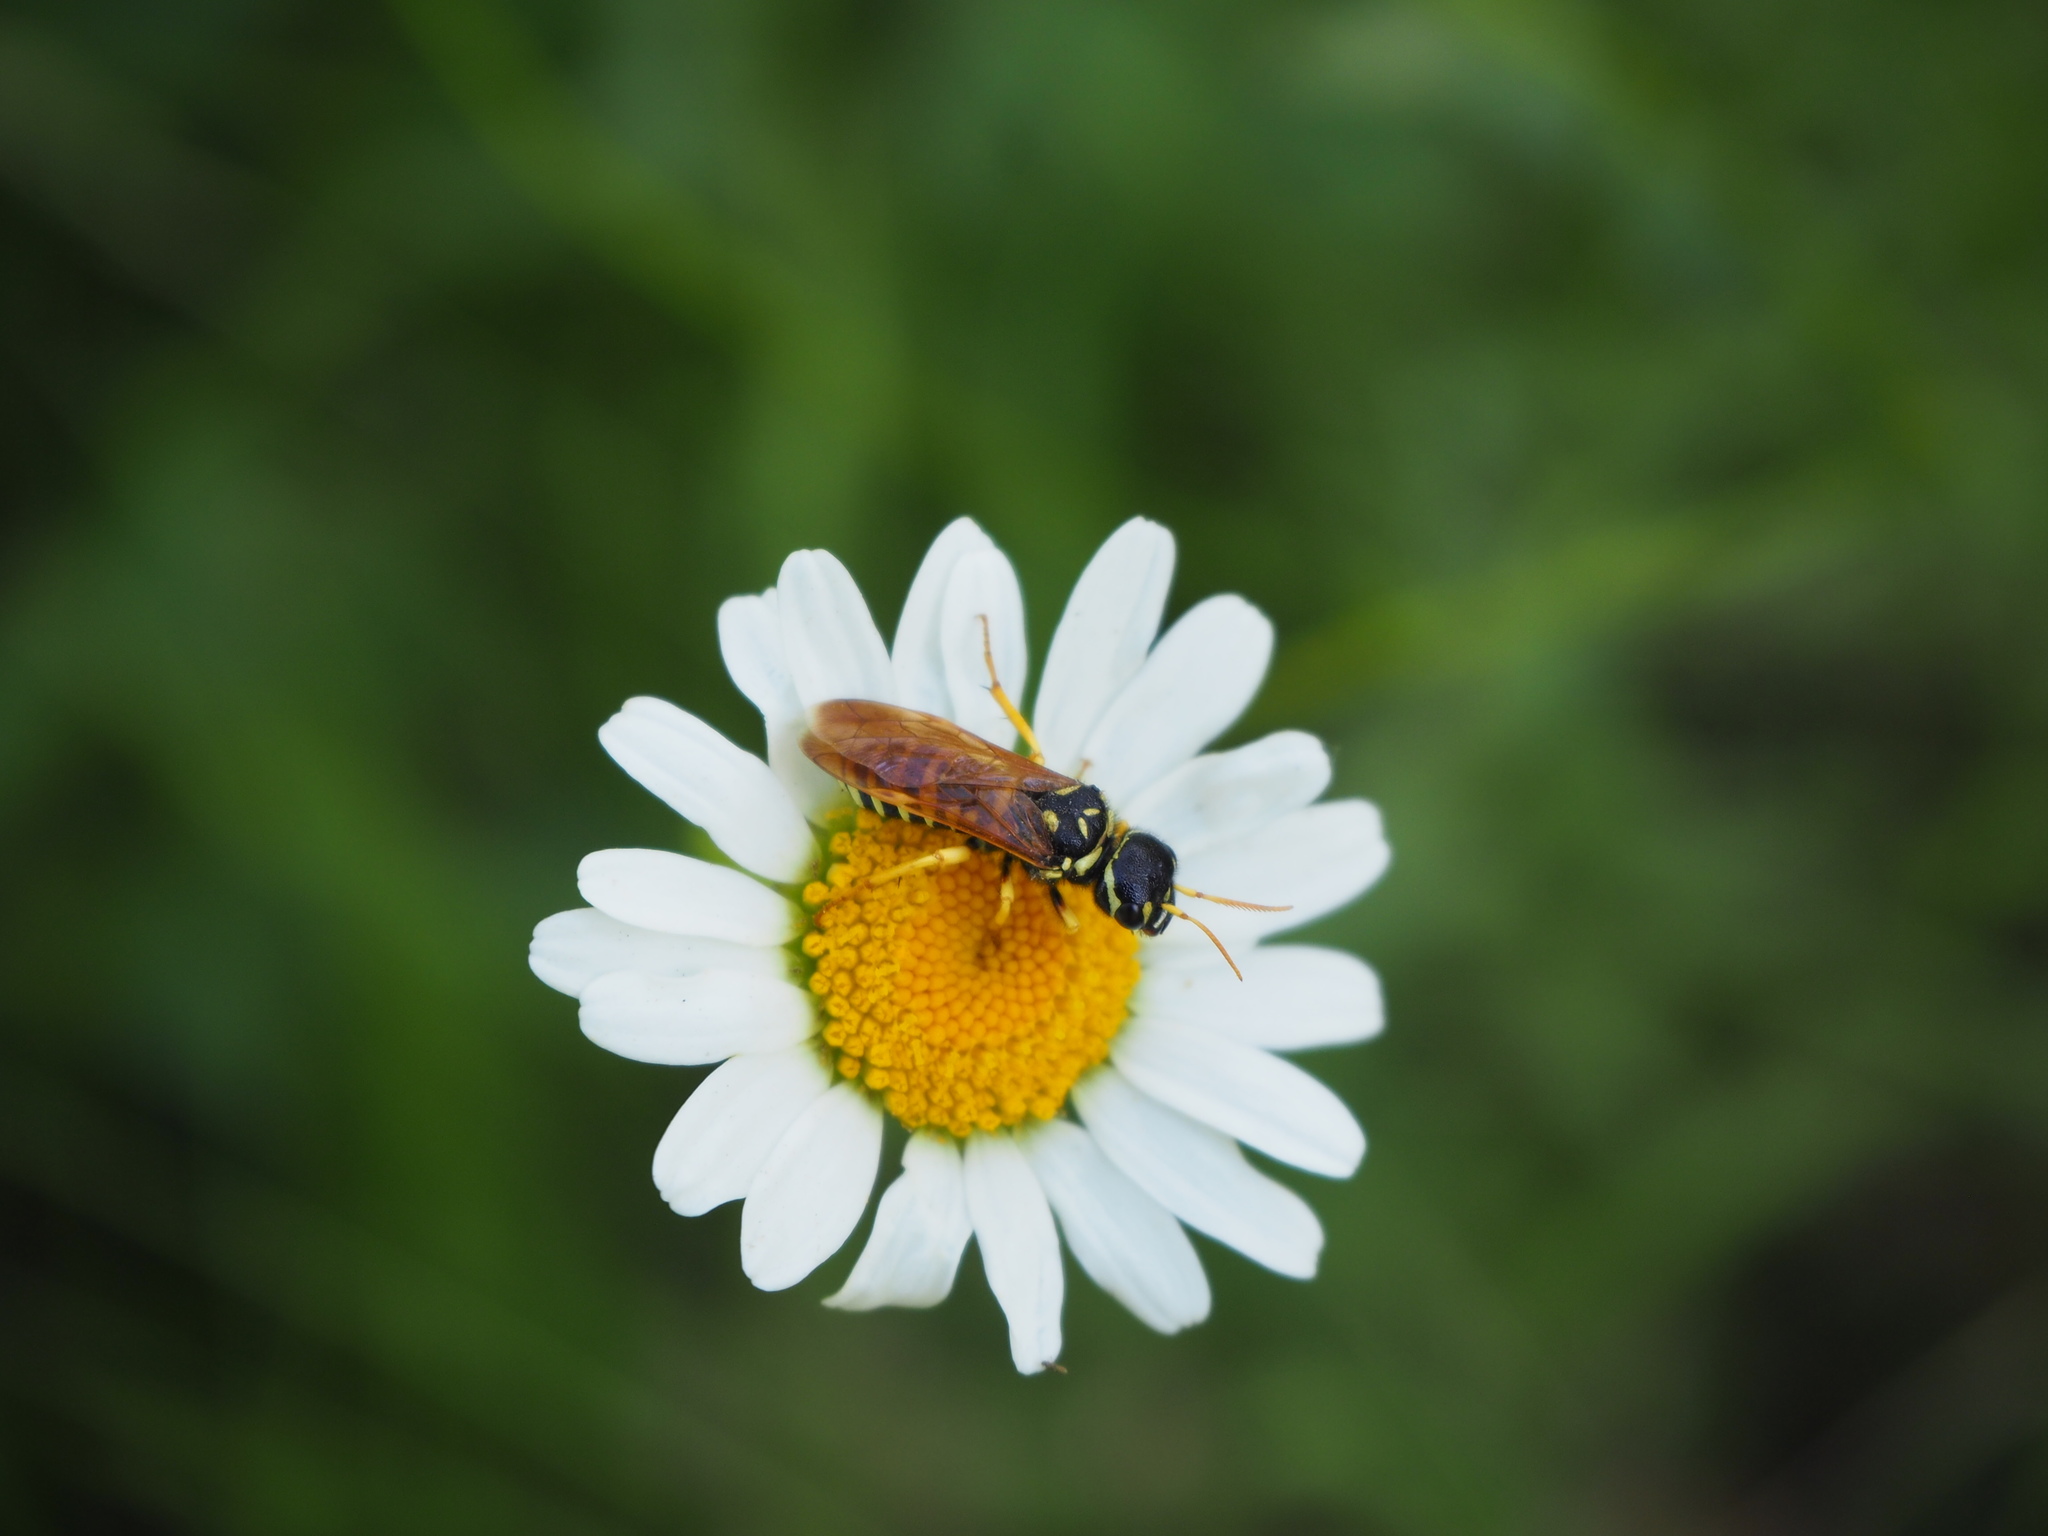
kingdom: Animalia
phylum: Arthropoda
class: Insecta
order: Hymenoptera
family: Megalodontesidae
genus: Megalodontes
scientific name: Megalodontes panzeri
